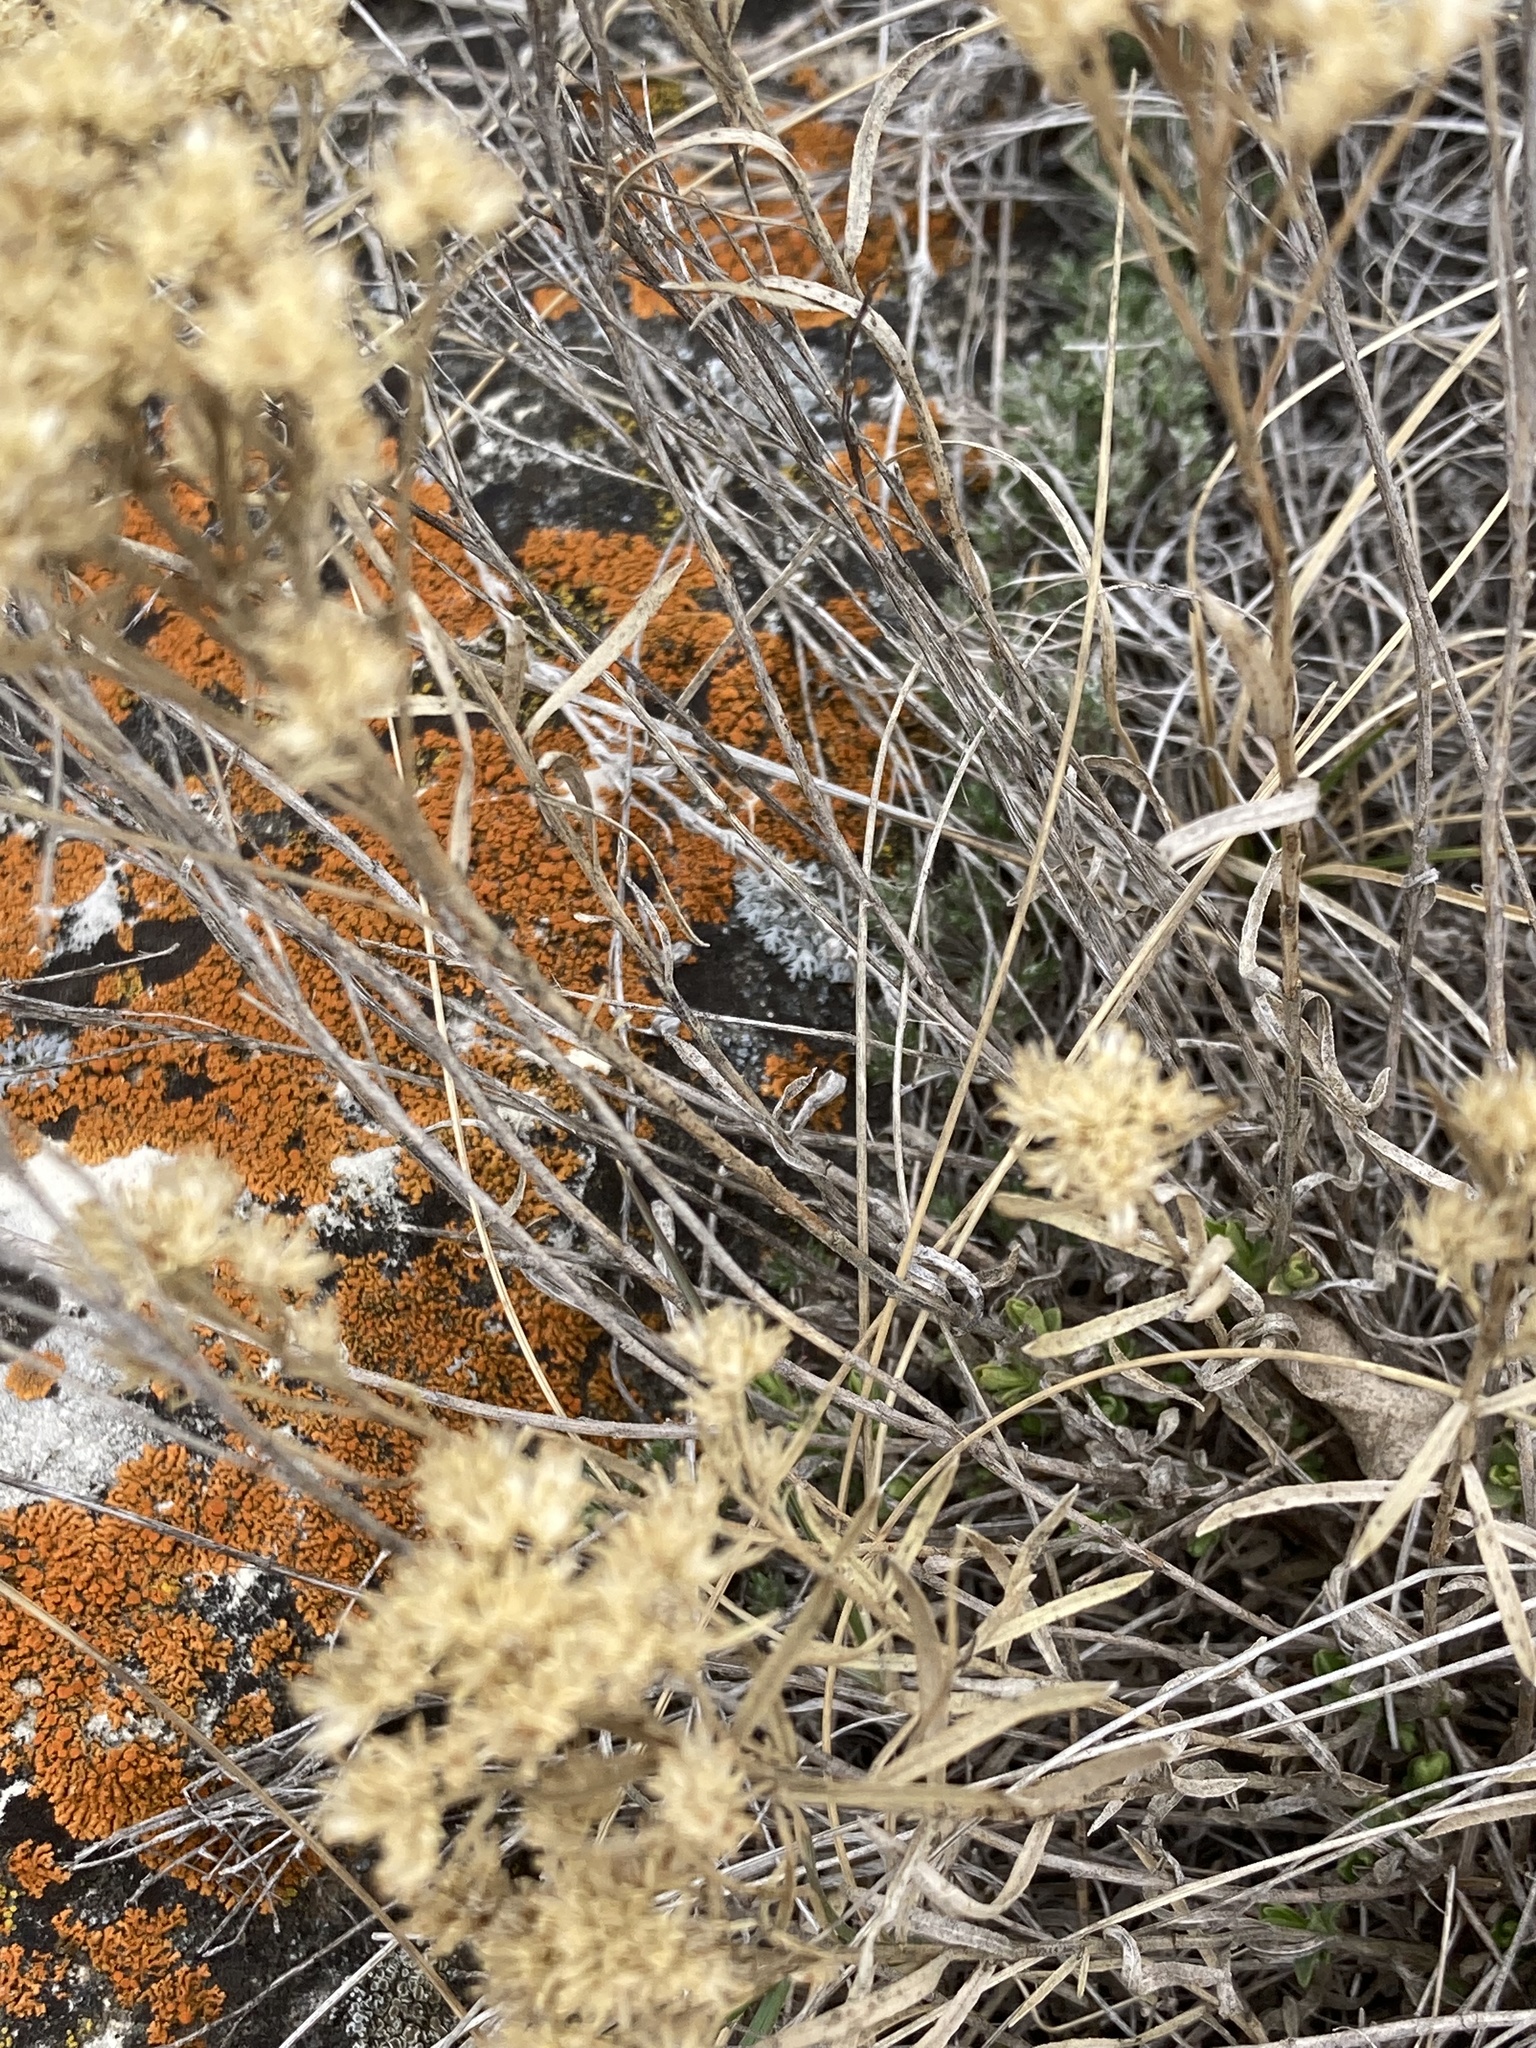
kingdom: Plantae
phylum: Tracheophyta
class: Magnoliopsida
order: Asterales
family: Asteraceae
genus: Gutierrezia
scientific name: Gutierrezia sarothrae
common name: Broom snakeweed
